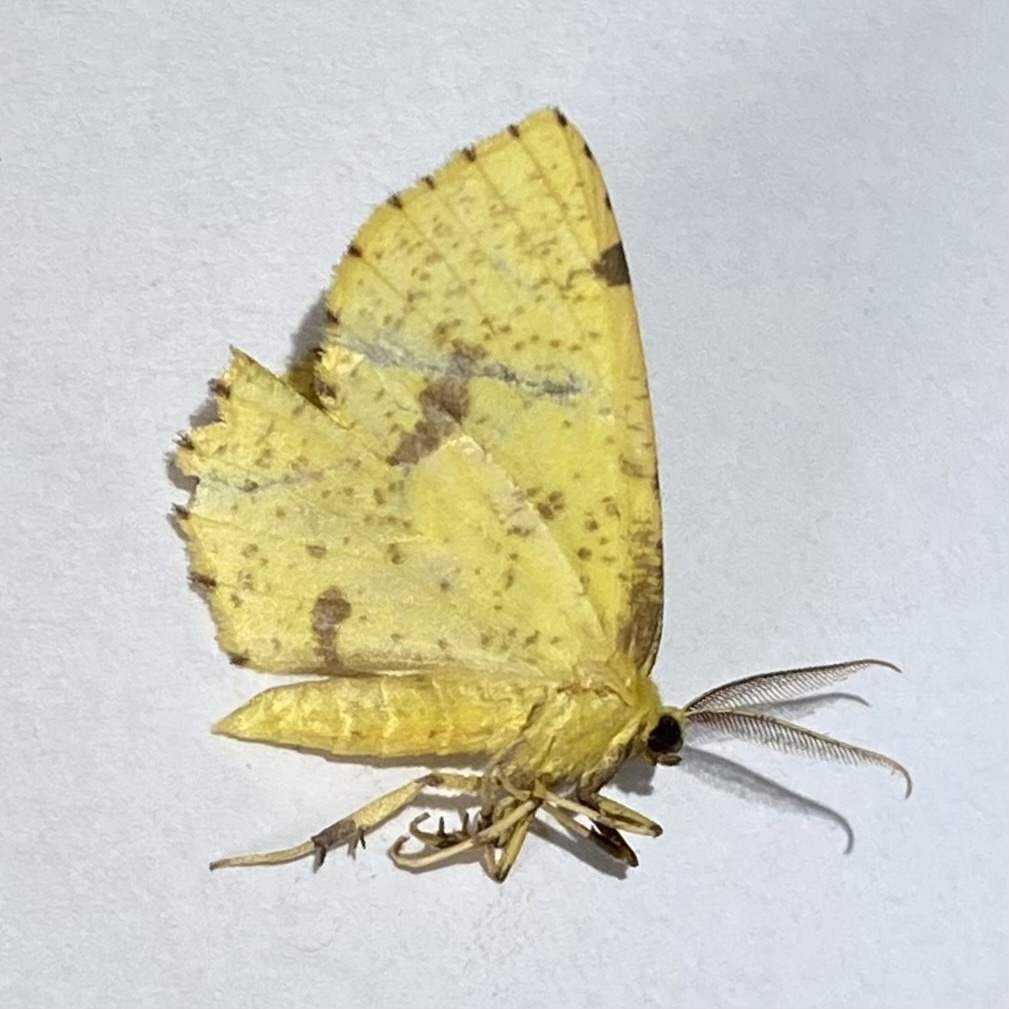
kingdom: Animalia
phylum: Arthropoda
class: Insecta
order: Lepidoptera
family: Geometridae
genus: Xanthotype
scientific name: Xanthotype
